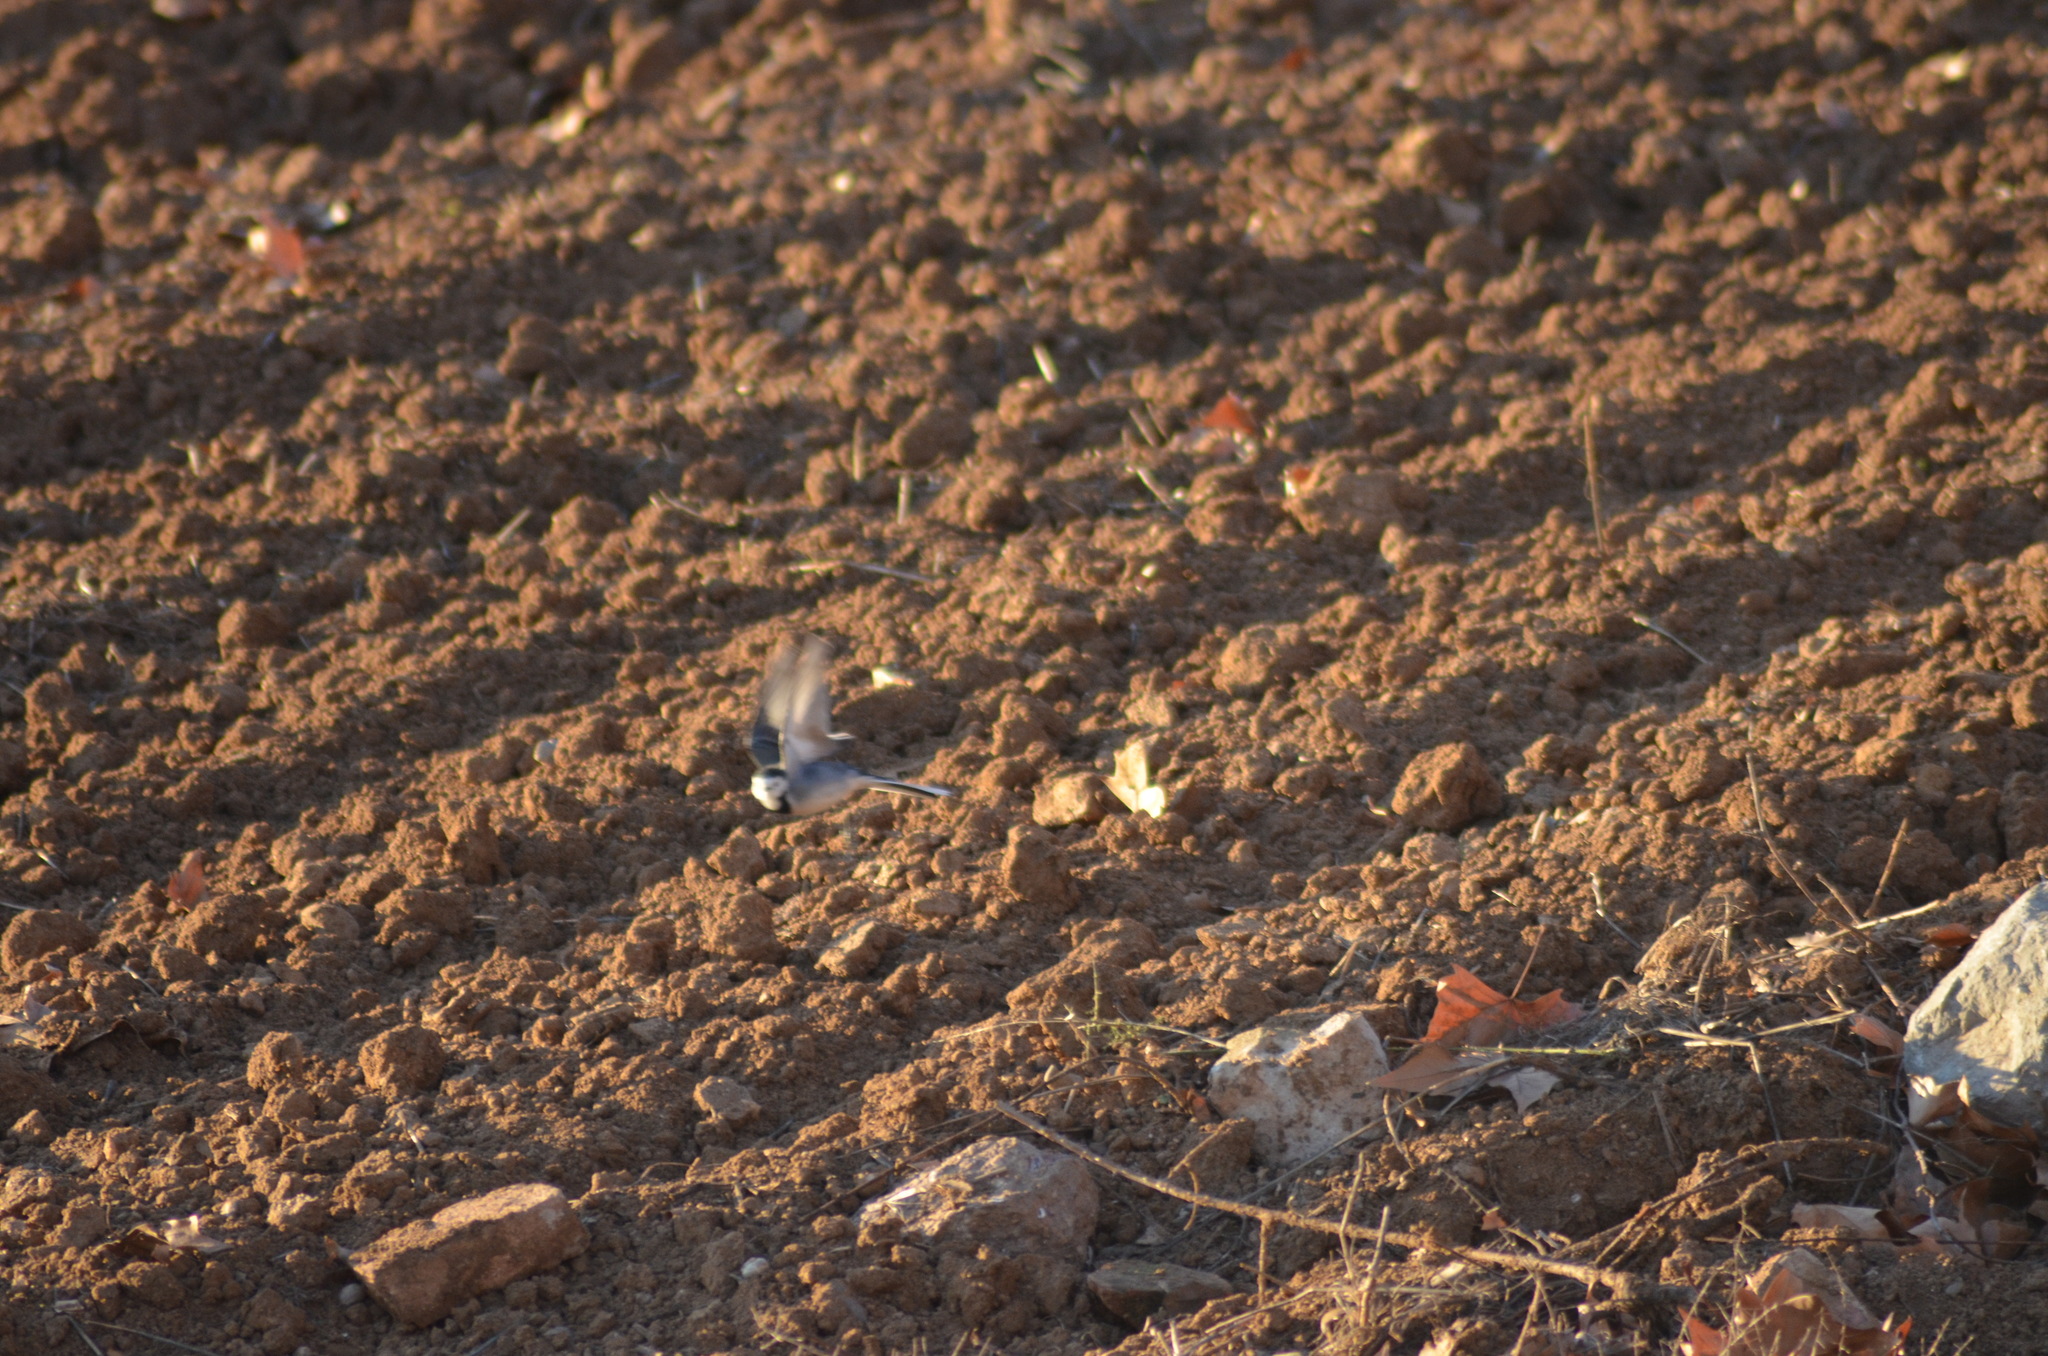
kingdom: Animalia
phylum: Chordata
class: Aves
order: Passeriformes
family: Motacillidae
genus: Motacilla
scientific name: Motacilla alba
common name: White wagtail
